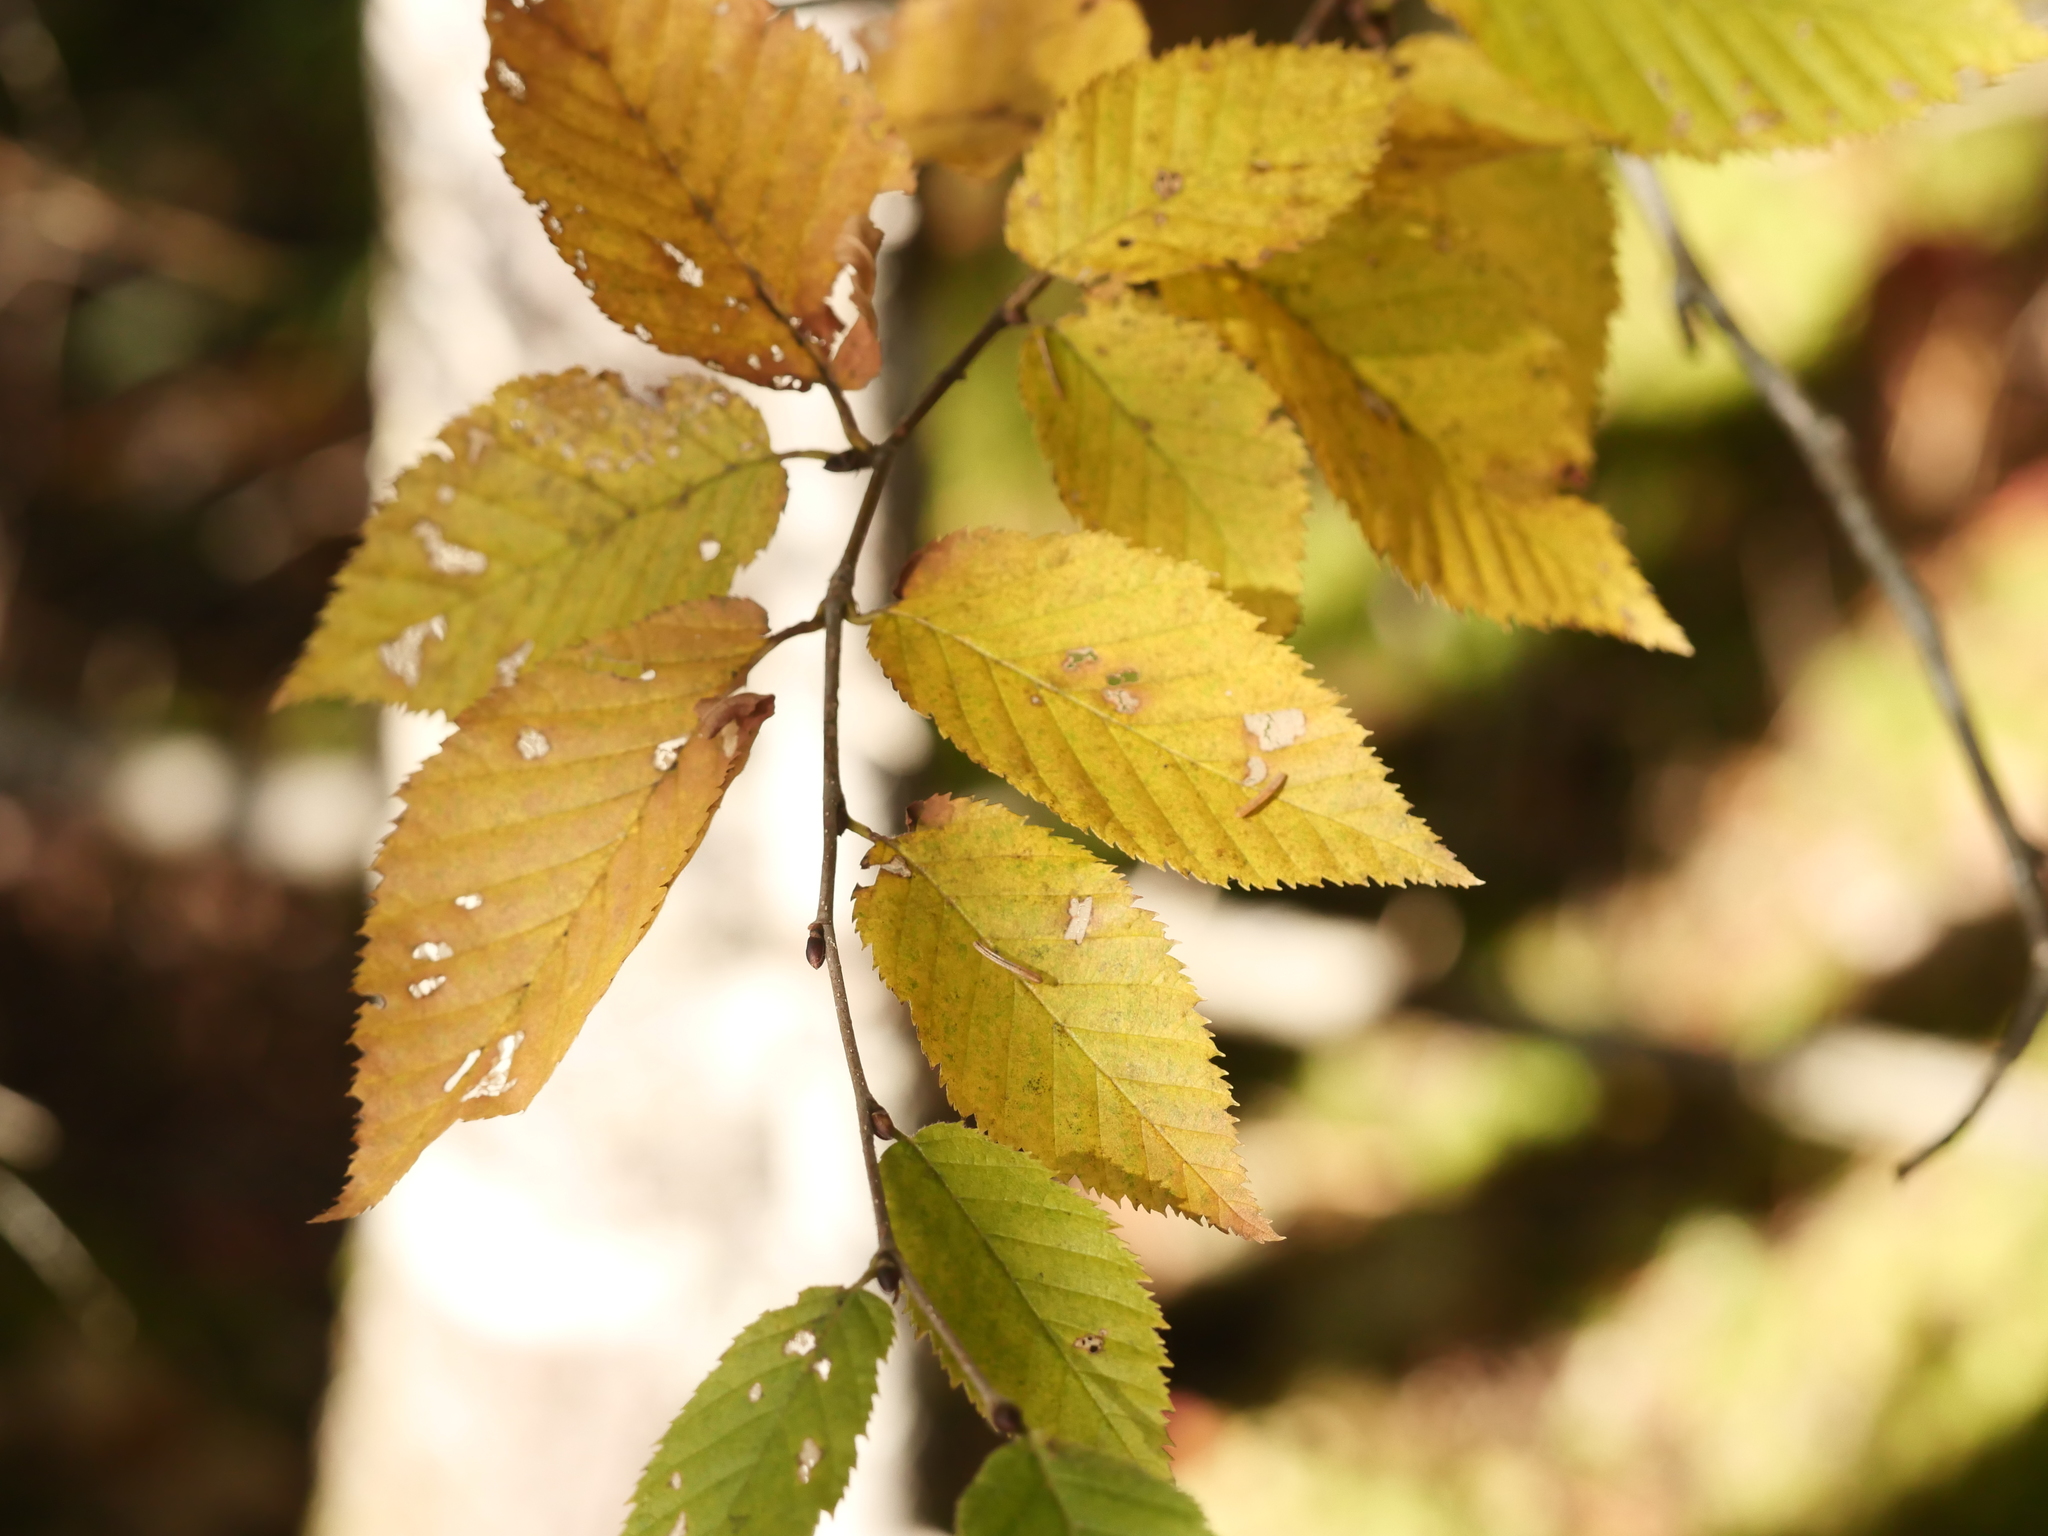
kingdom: Plantae
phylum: Tracheophyta
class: Magnoliopsida
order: Fagales
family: Betulaceae
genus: Betula
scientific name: Betula alleghaniensis
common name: Yellow birch
